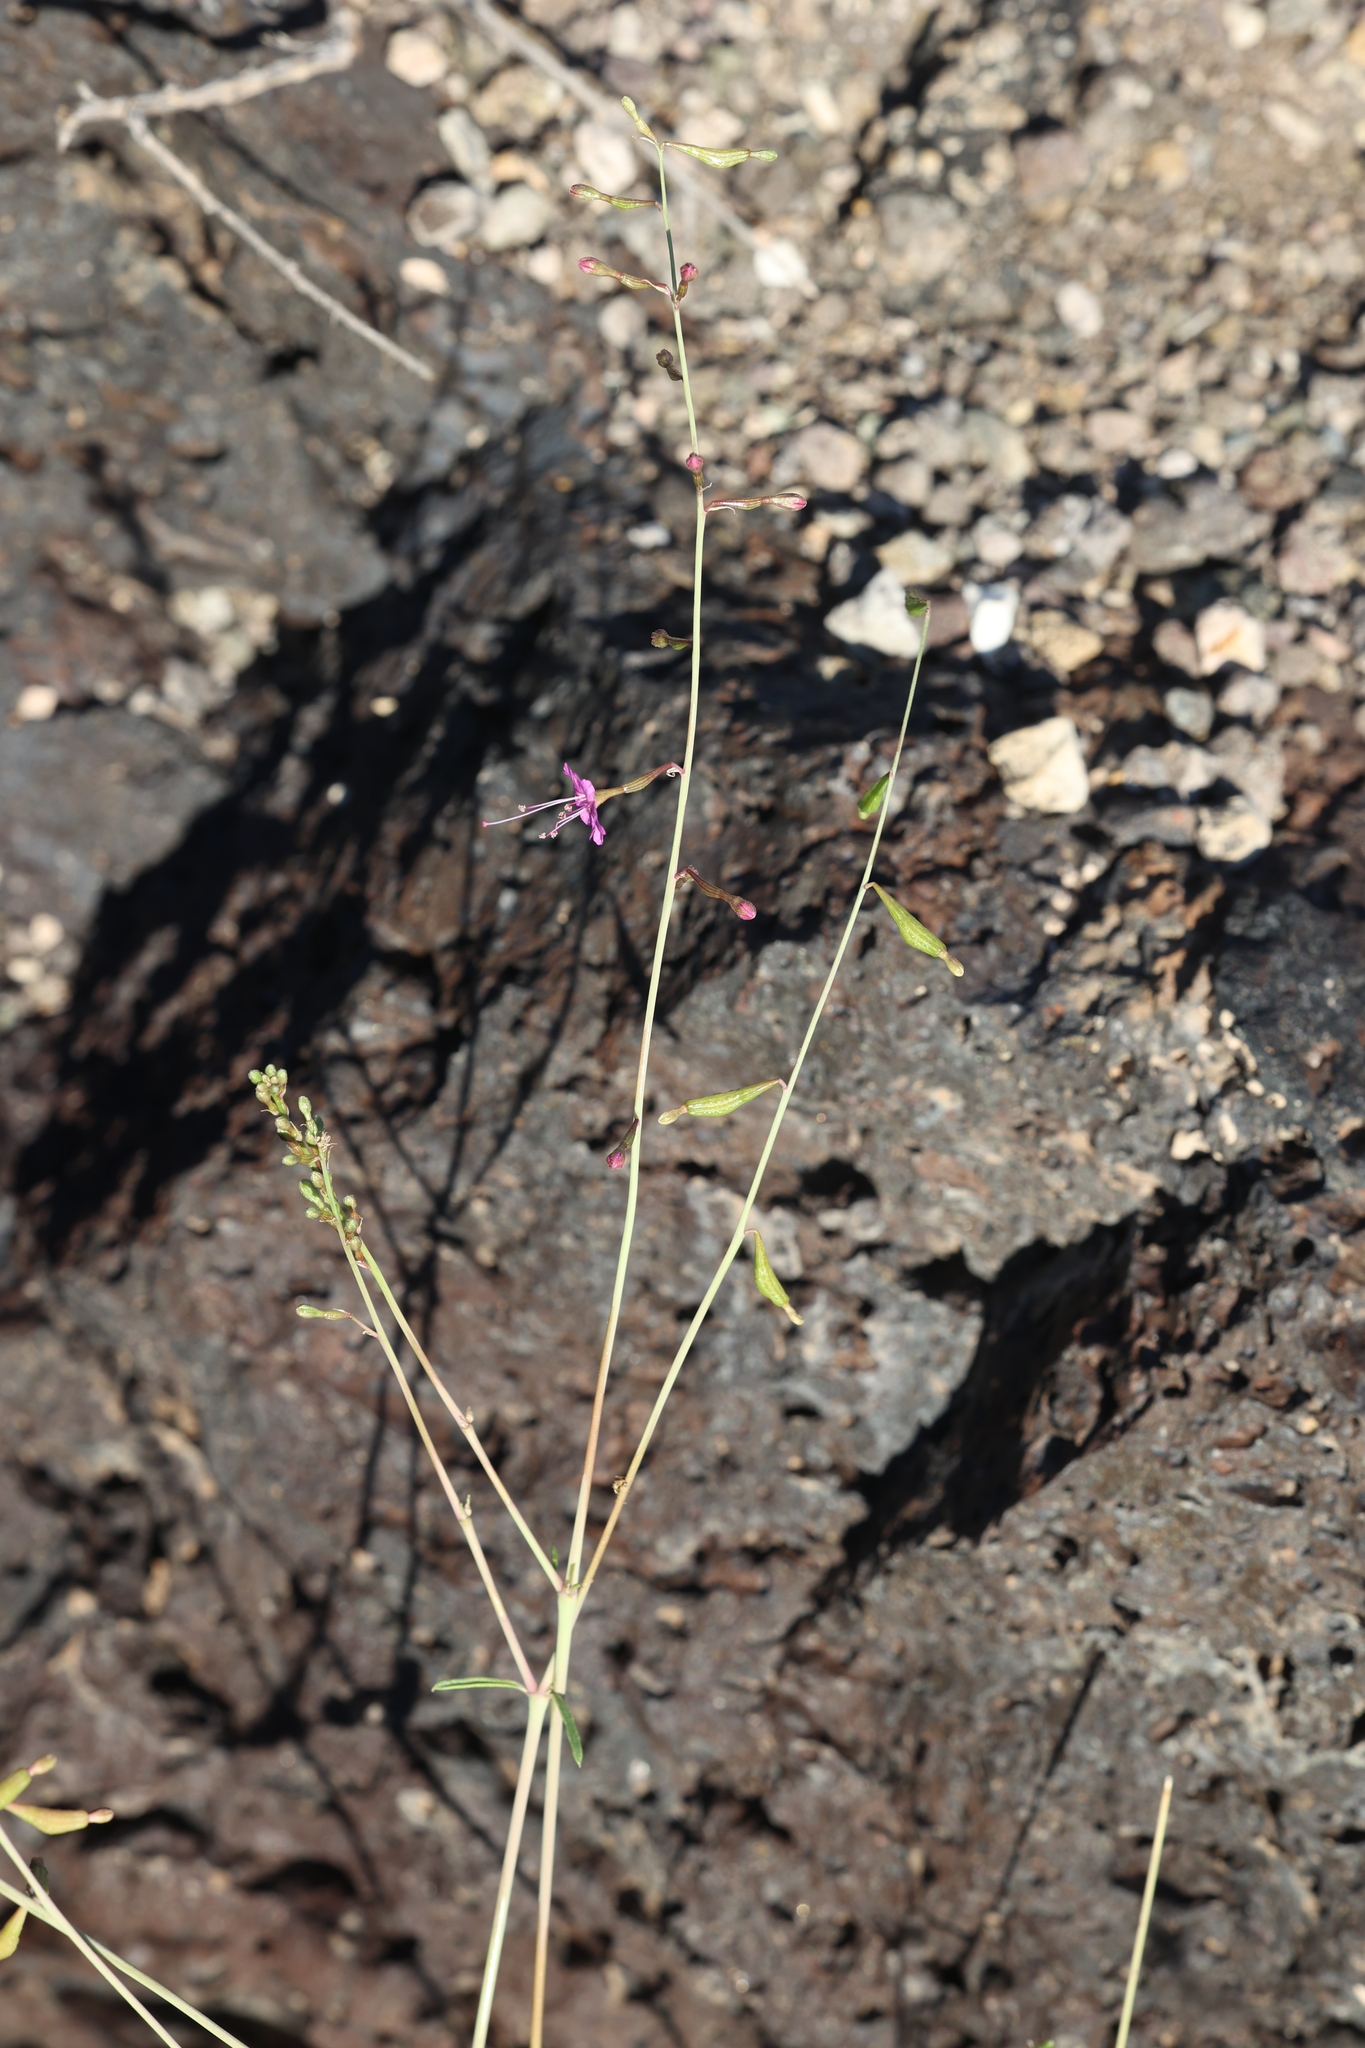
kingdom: Plantae
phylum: Tracheophyta
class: Magnoliopsida
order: Caryophyllales
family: Nyctaginaceae
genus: Cyphomeris
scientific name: Cyphomeris gypsophiloides
